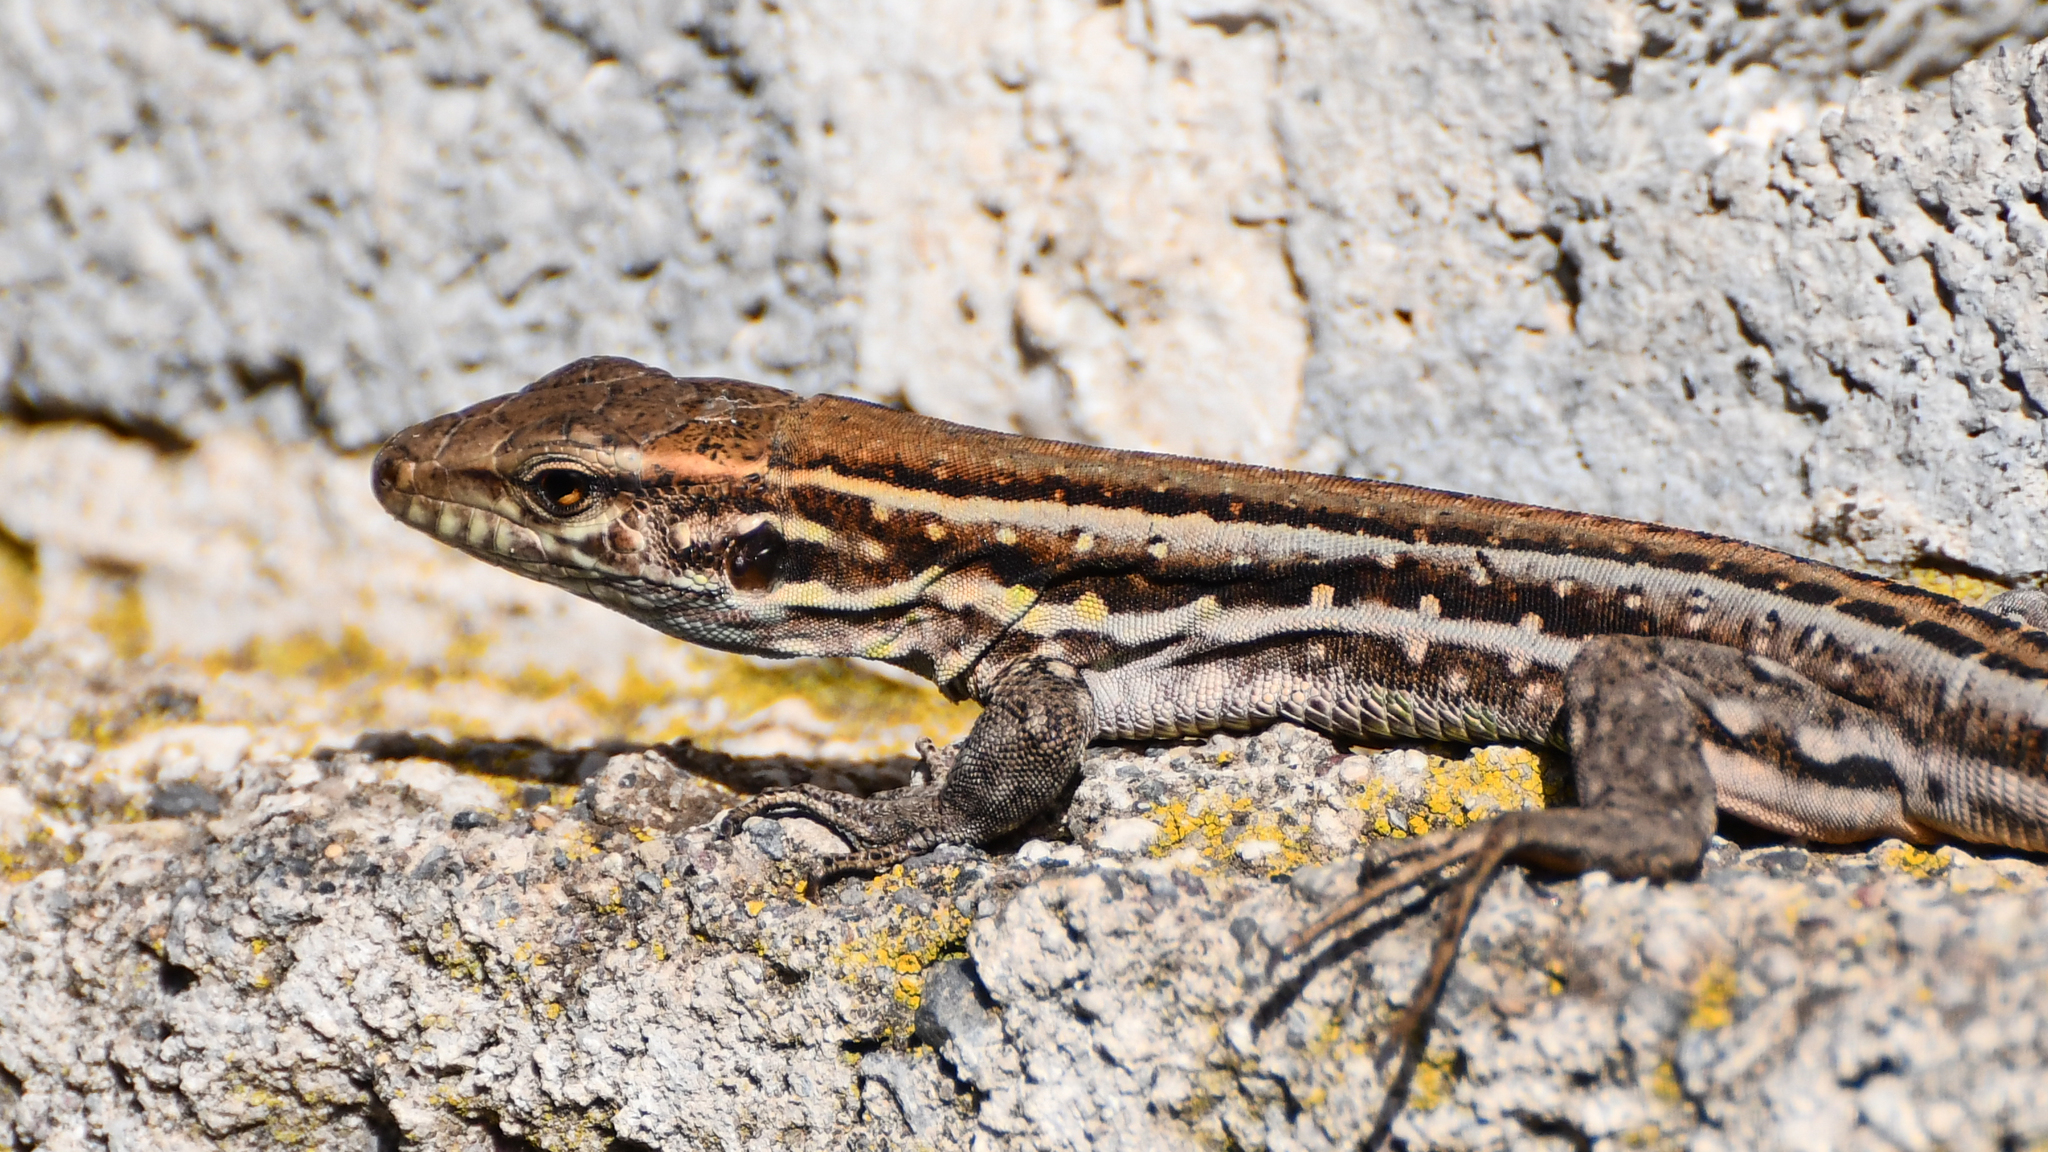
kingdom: Animalia
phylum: Chordata
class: Squamata
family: Lacertidae
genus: Gallotia
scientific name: Gallotia galloti
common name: Gallot's lizard
